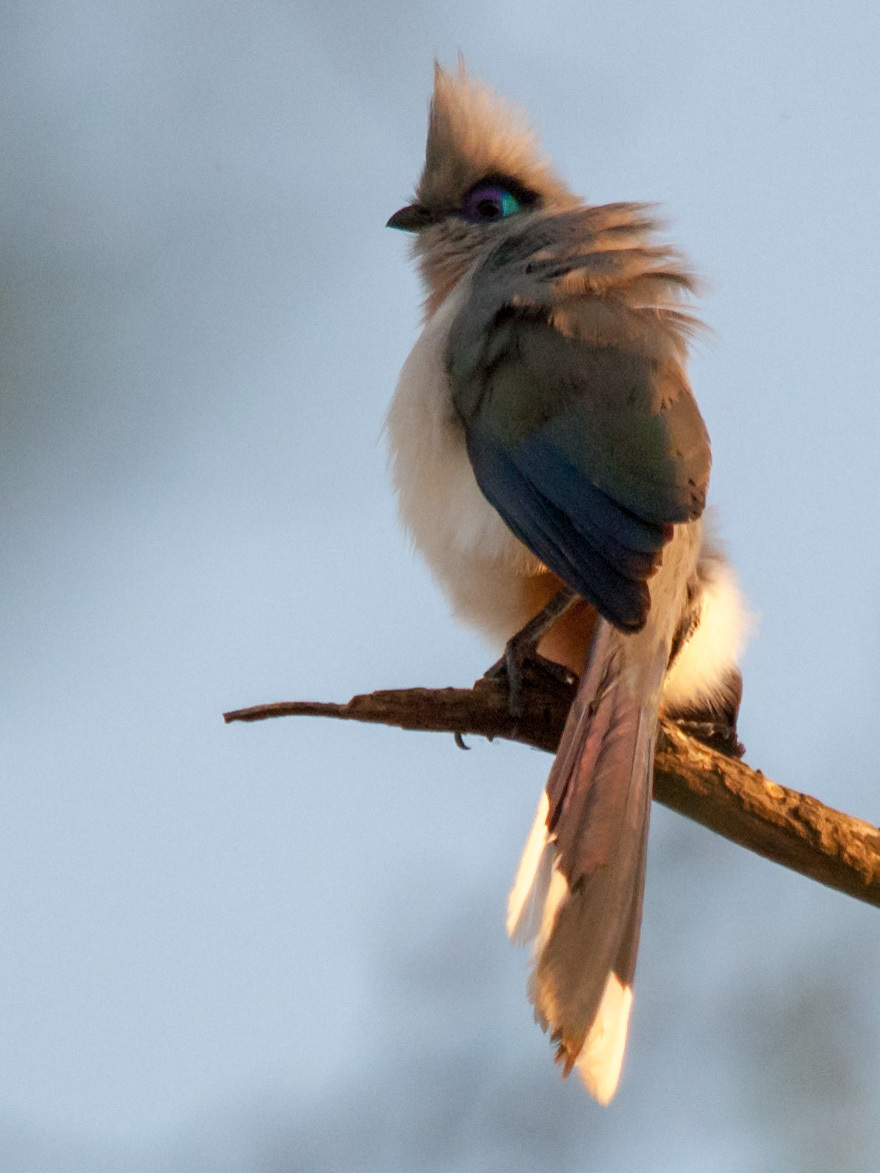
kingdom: Animalia
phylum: Chordata
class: Aves
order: Cuculiformes
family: Cuculidae
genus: Coua
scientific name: Coua cristata
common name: Crested coua
